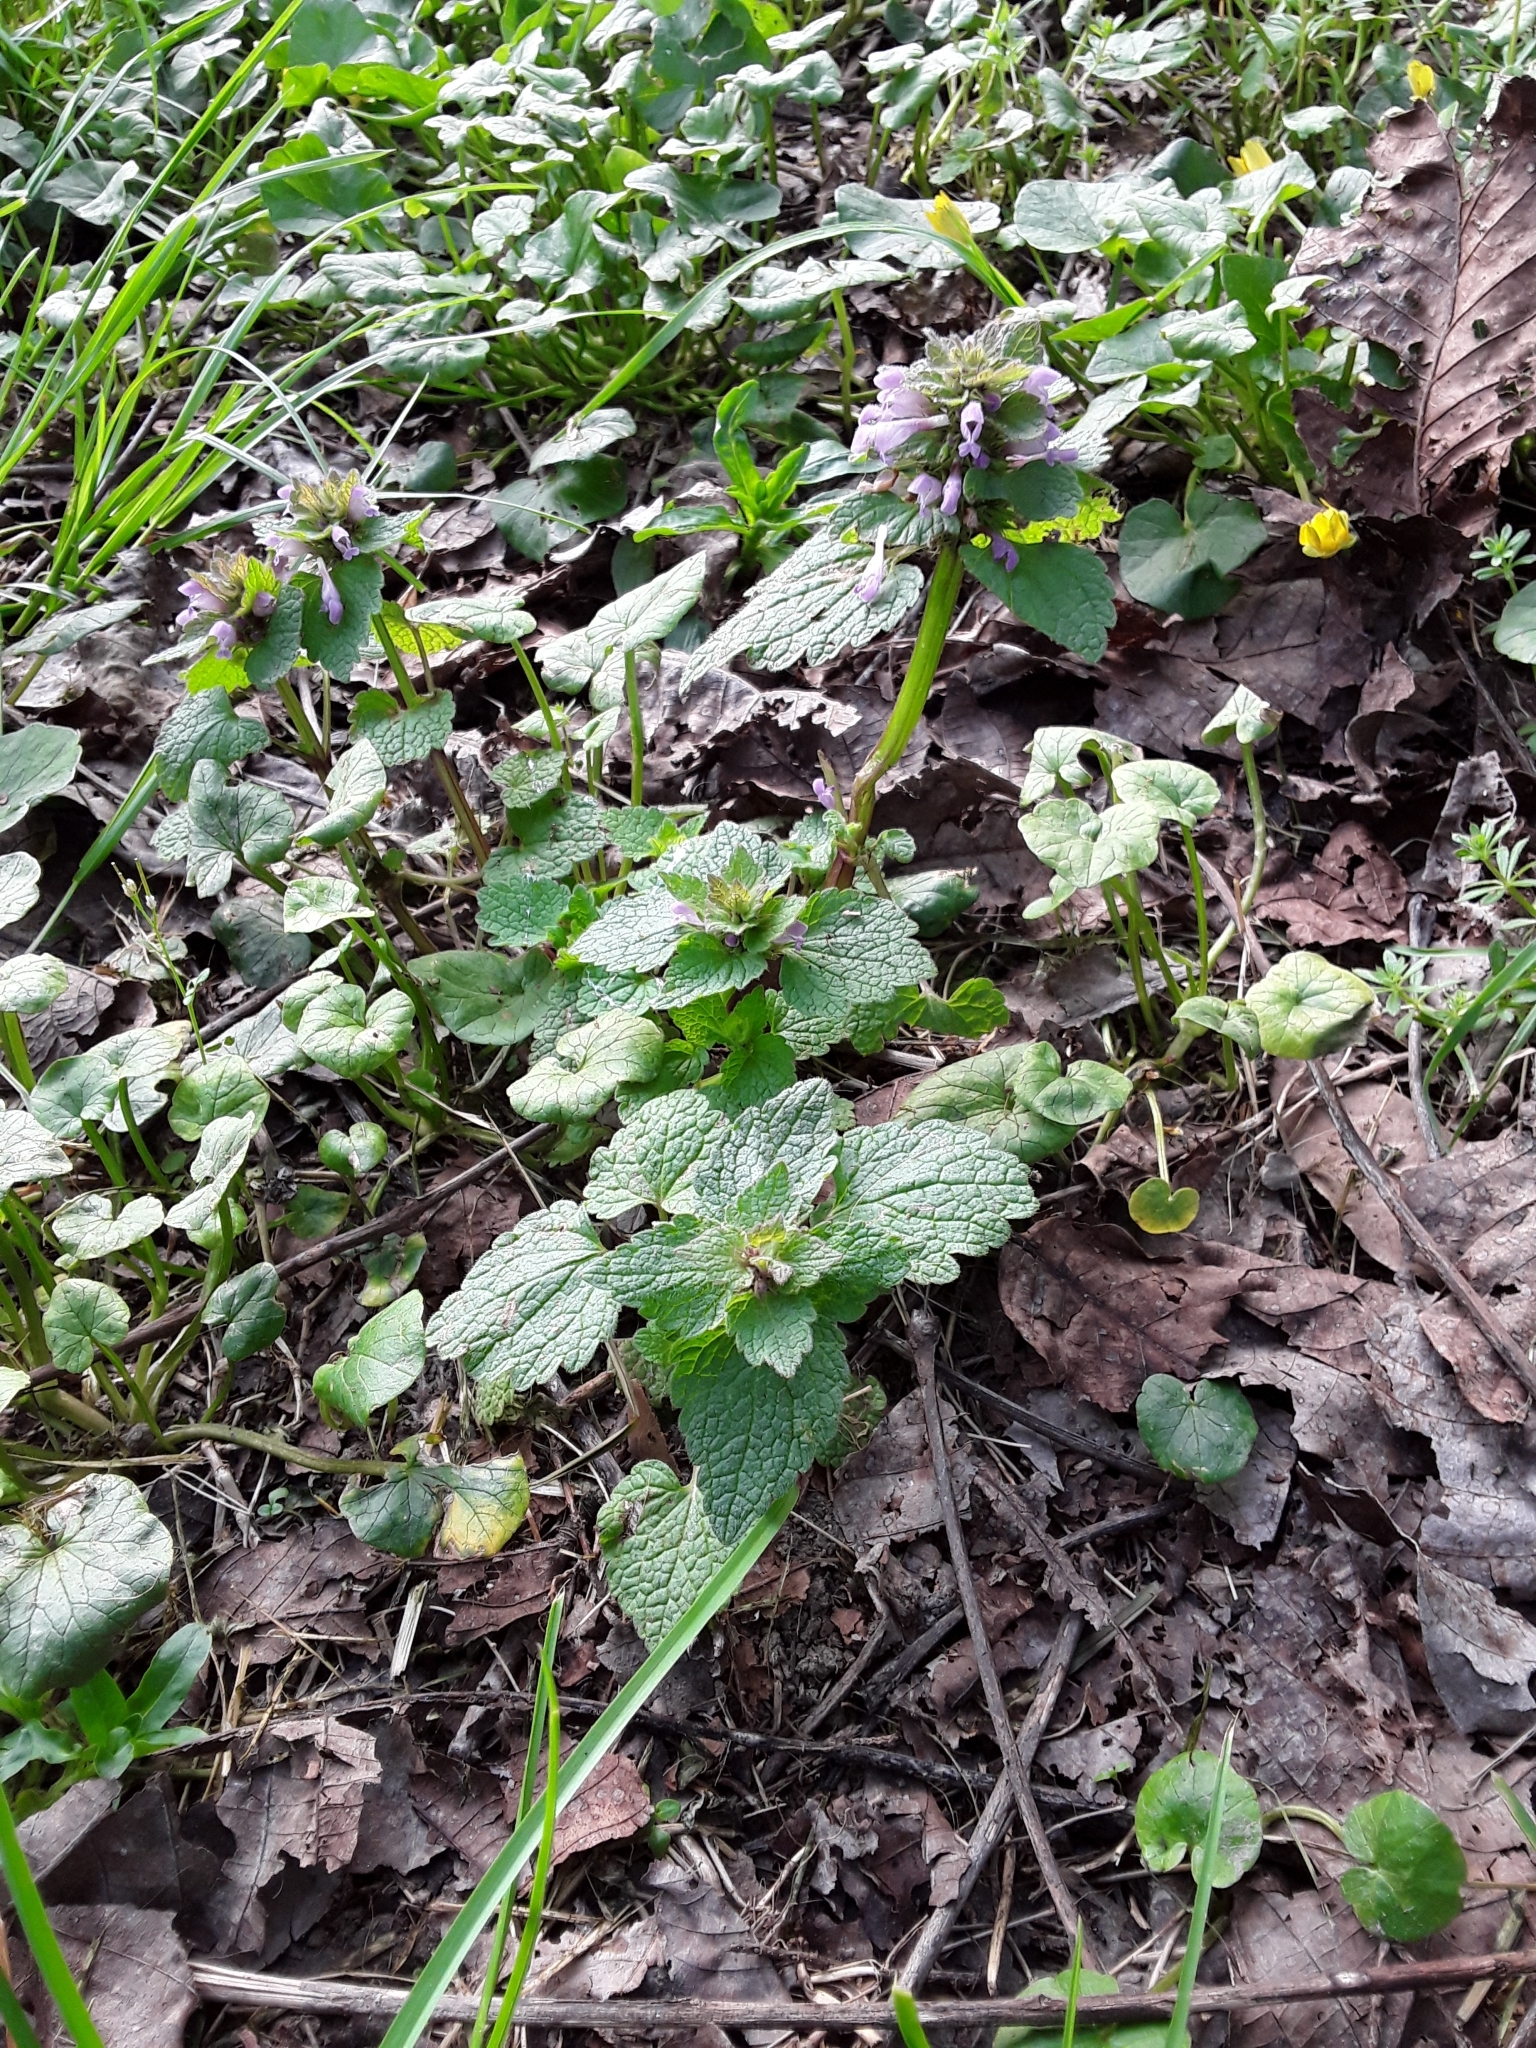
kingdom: Plantae
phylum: Tracheophyta
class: Magnoliopsida
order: Lamiales
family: Lamiaceae
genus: Lamium
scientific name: Lamium purpureum
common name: Red dead-nettle
